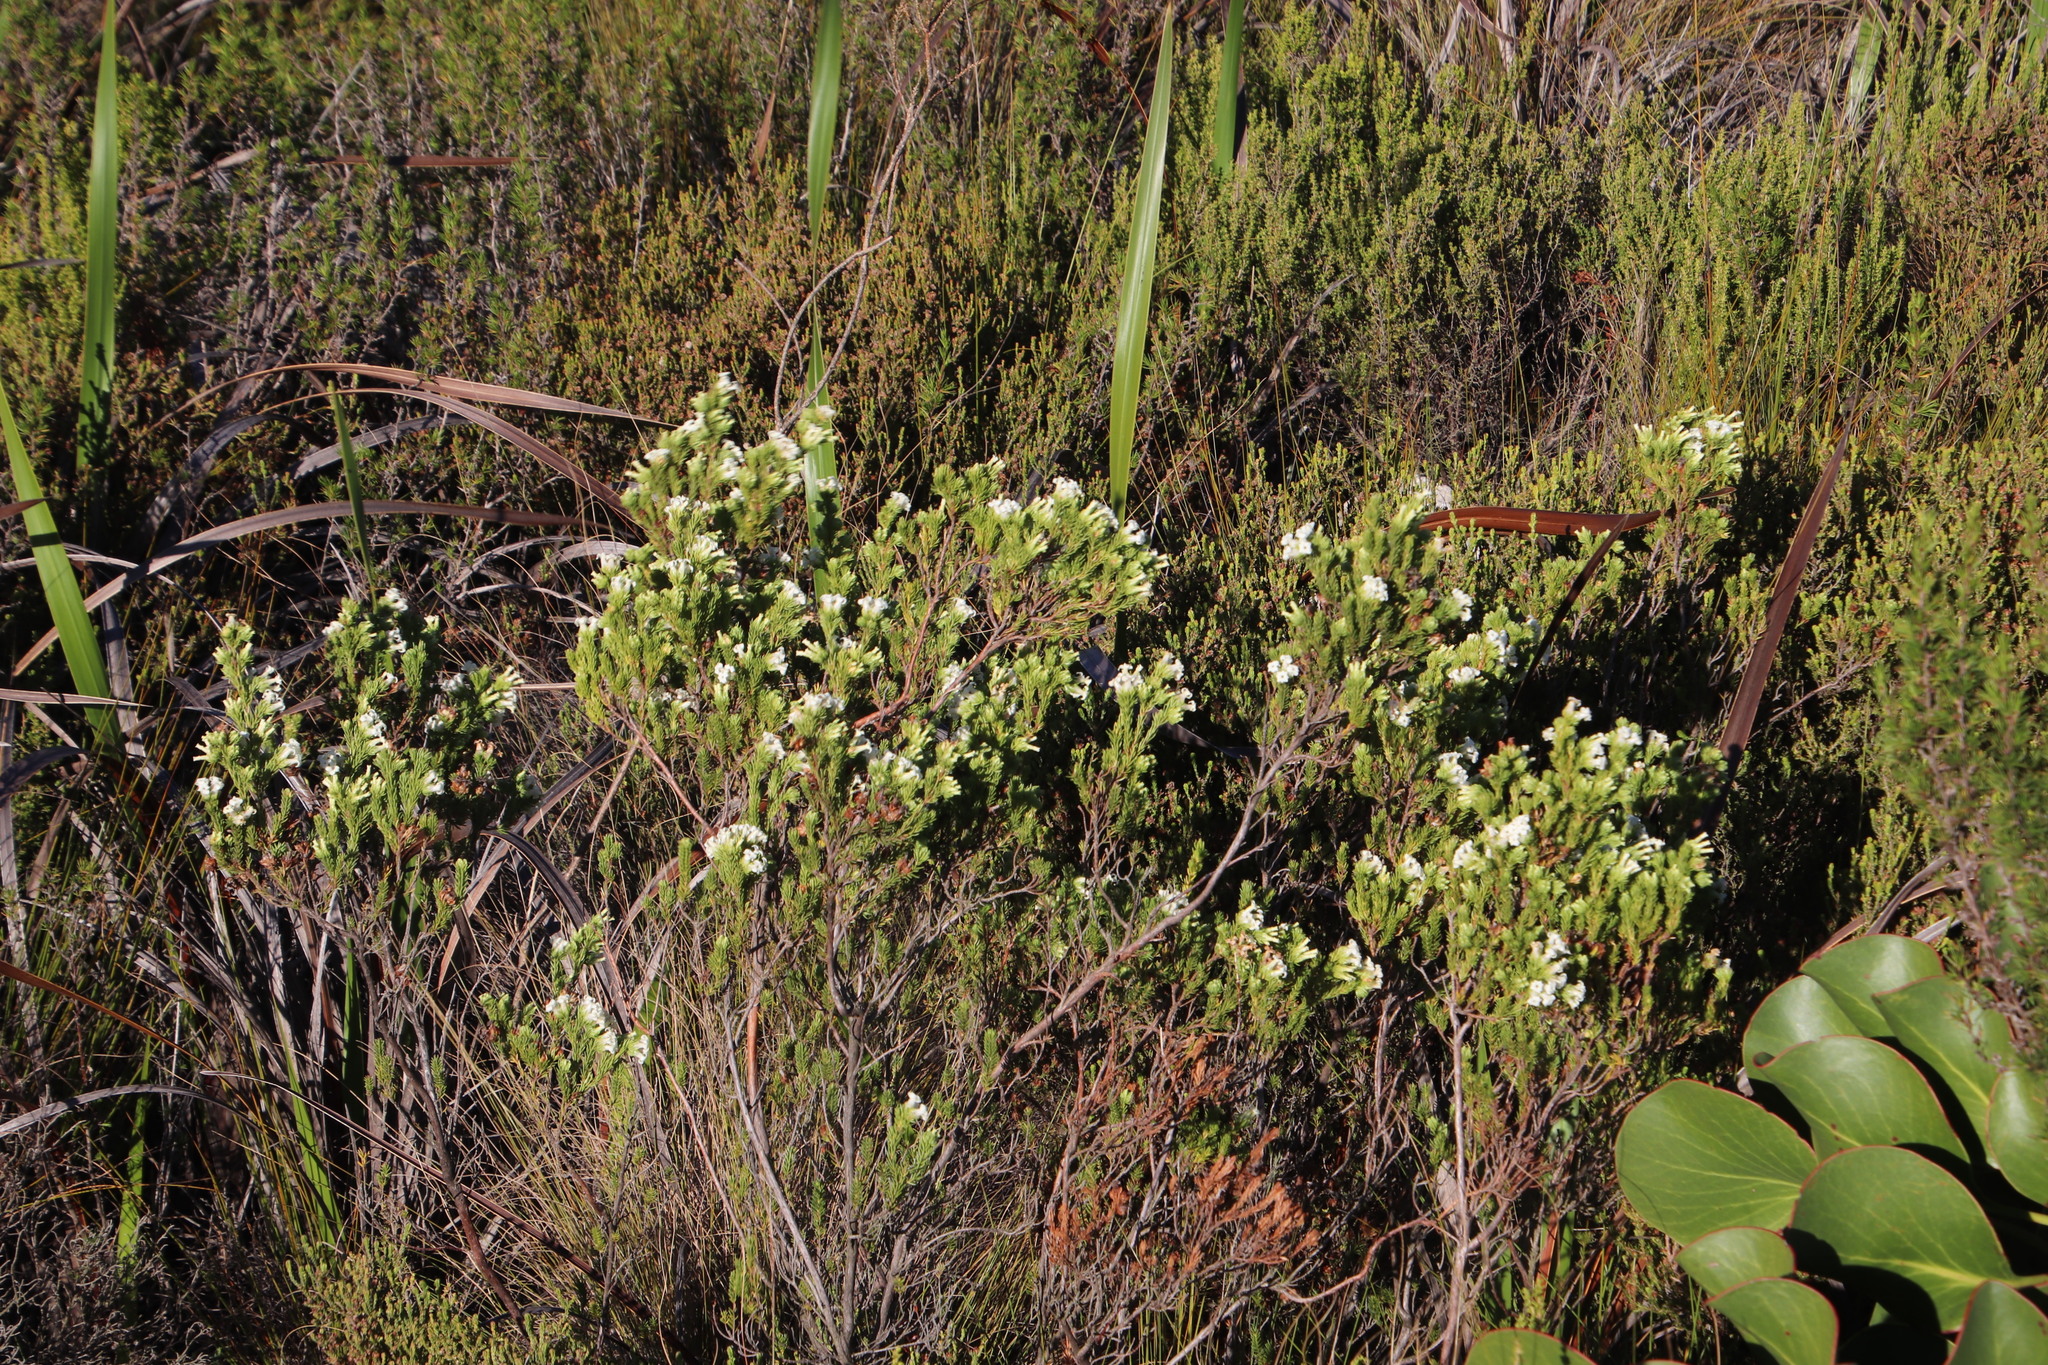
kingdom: Plantae
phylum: Tracheophyta
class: Magnoliopsida
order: Ericales
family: Ericaceae
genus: Erica
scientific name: Erica denticulata
